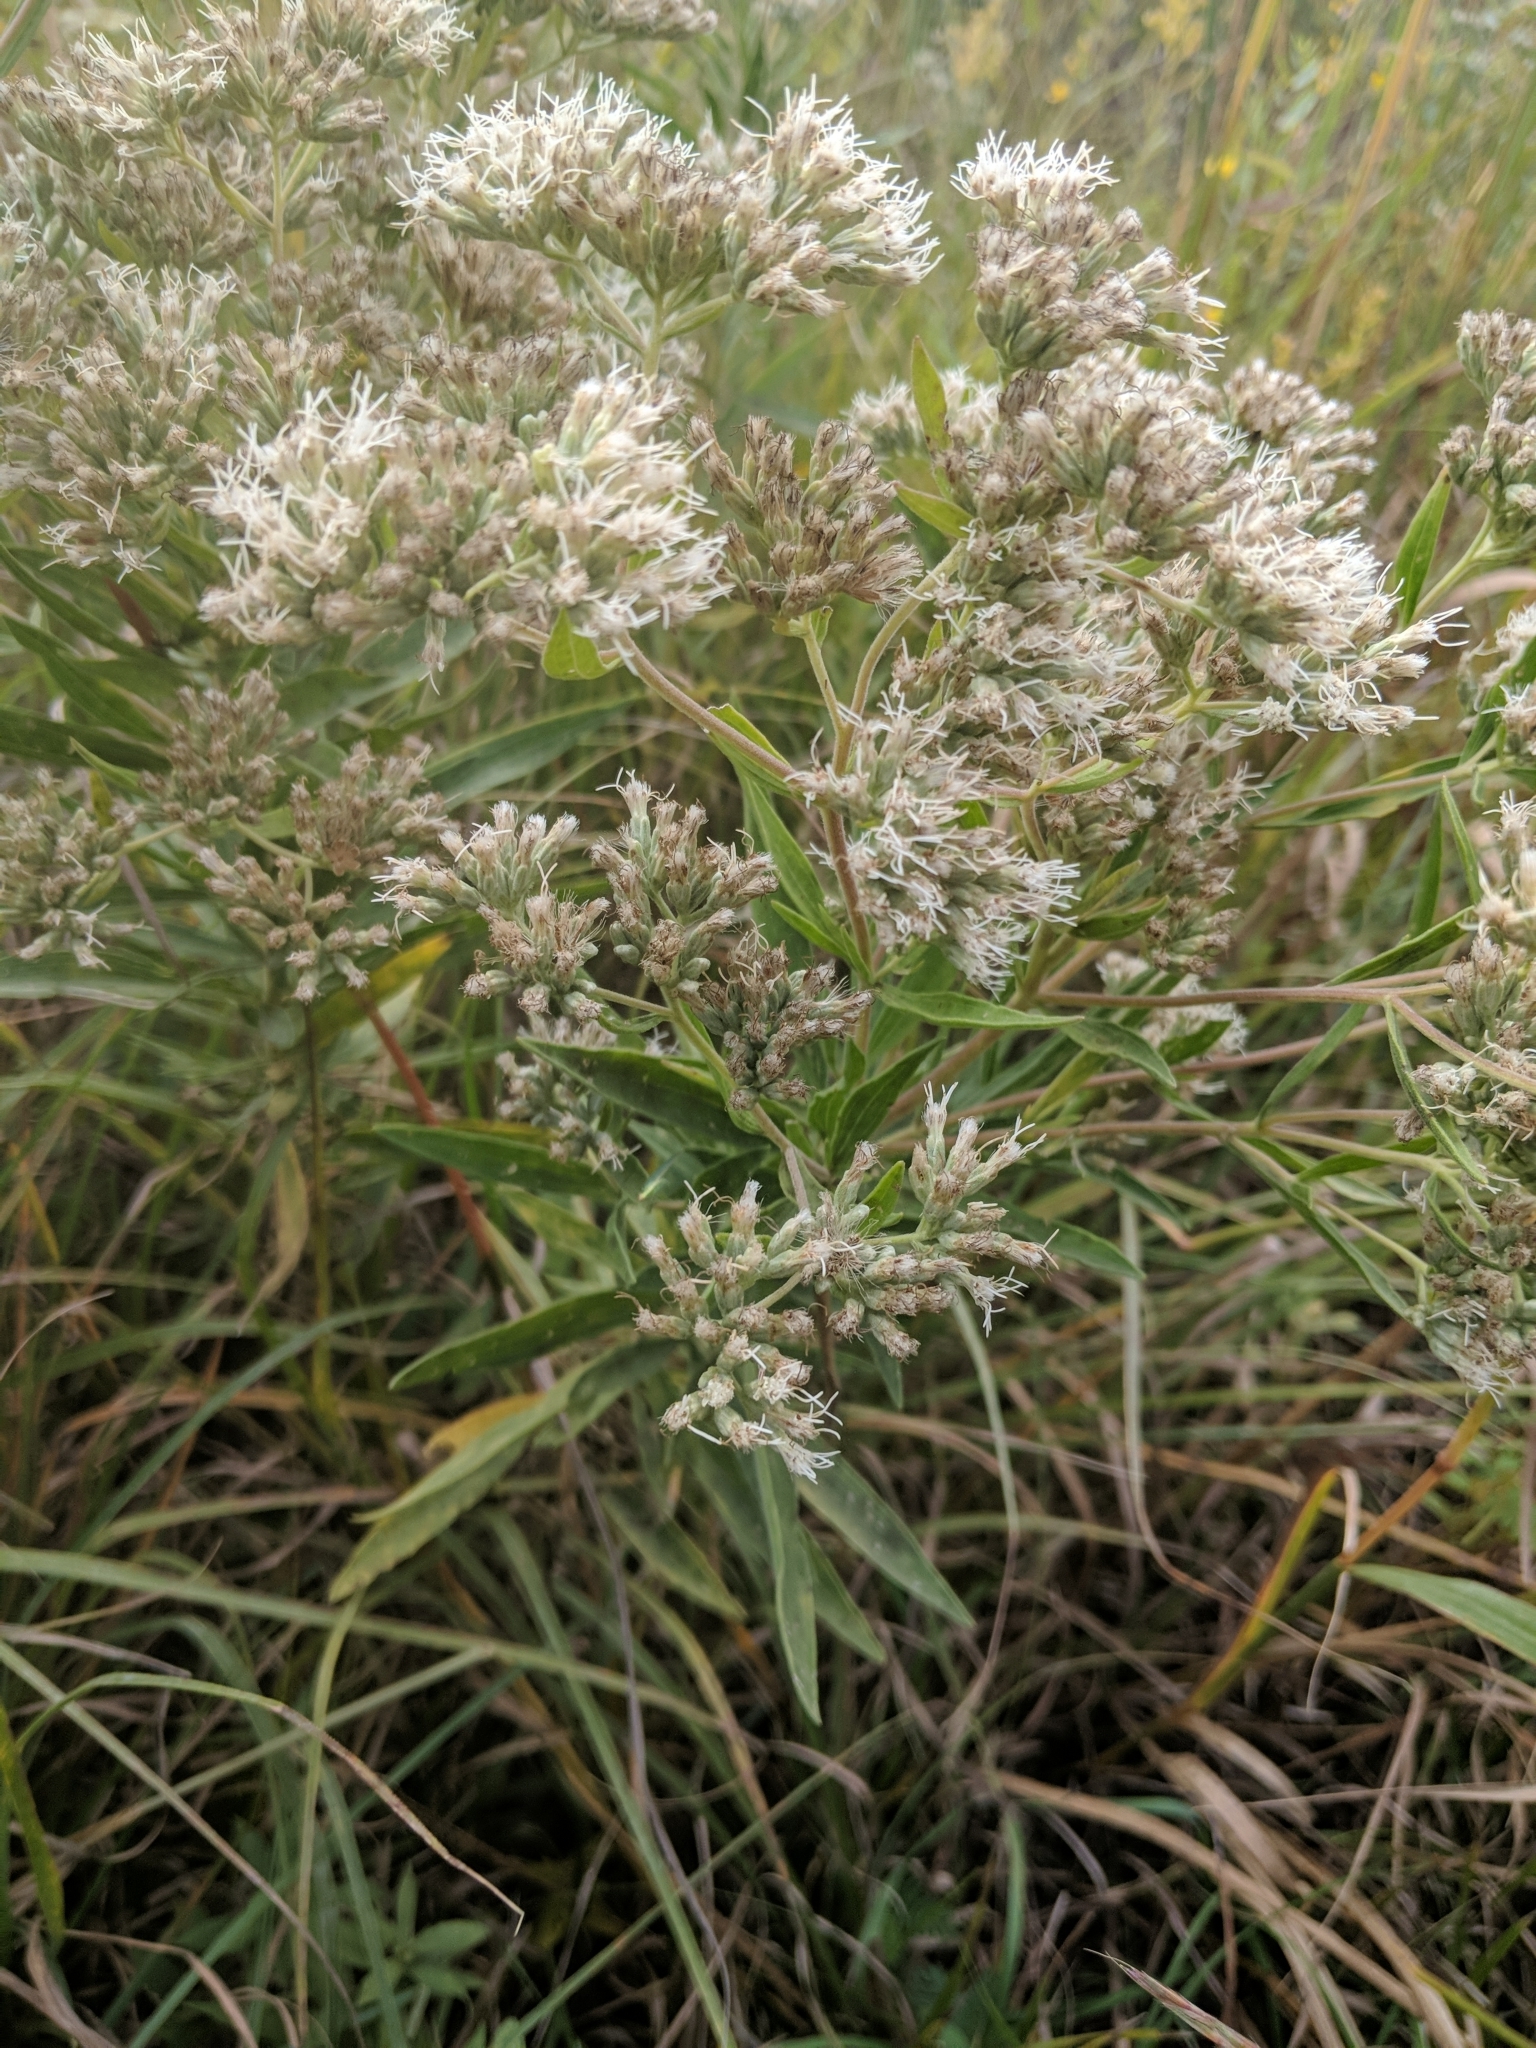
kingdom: Plantae
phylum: Tracheophyta
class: Magnoliopsida
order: Asterales
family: Asteraceae
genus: Eupatorium
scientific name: Eupatorium altissimum
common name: Tall thoroughwort
